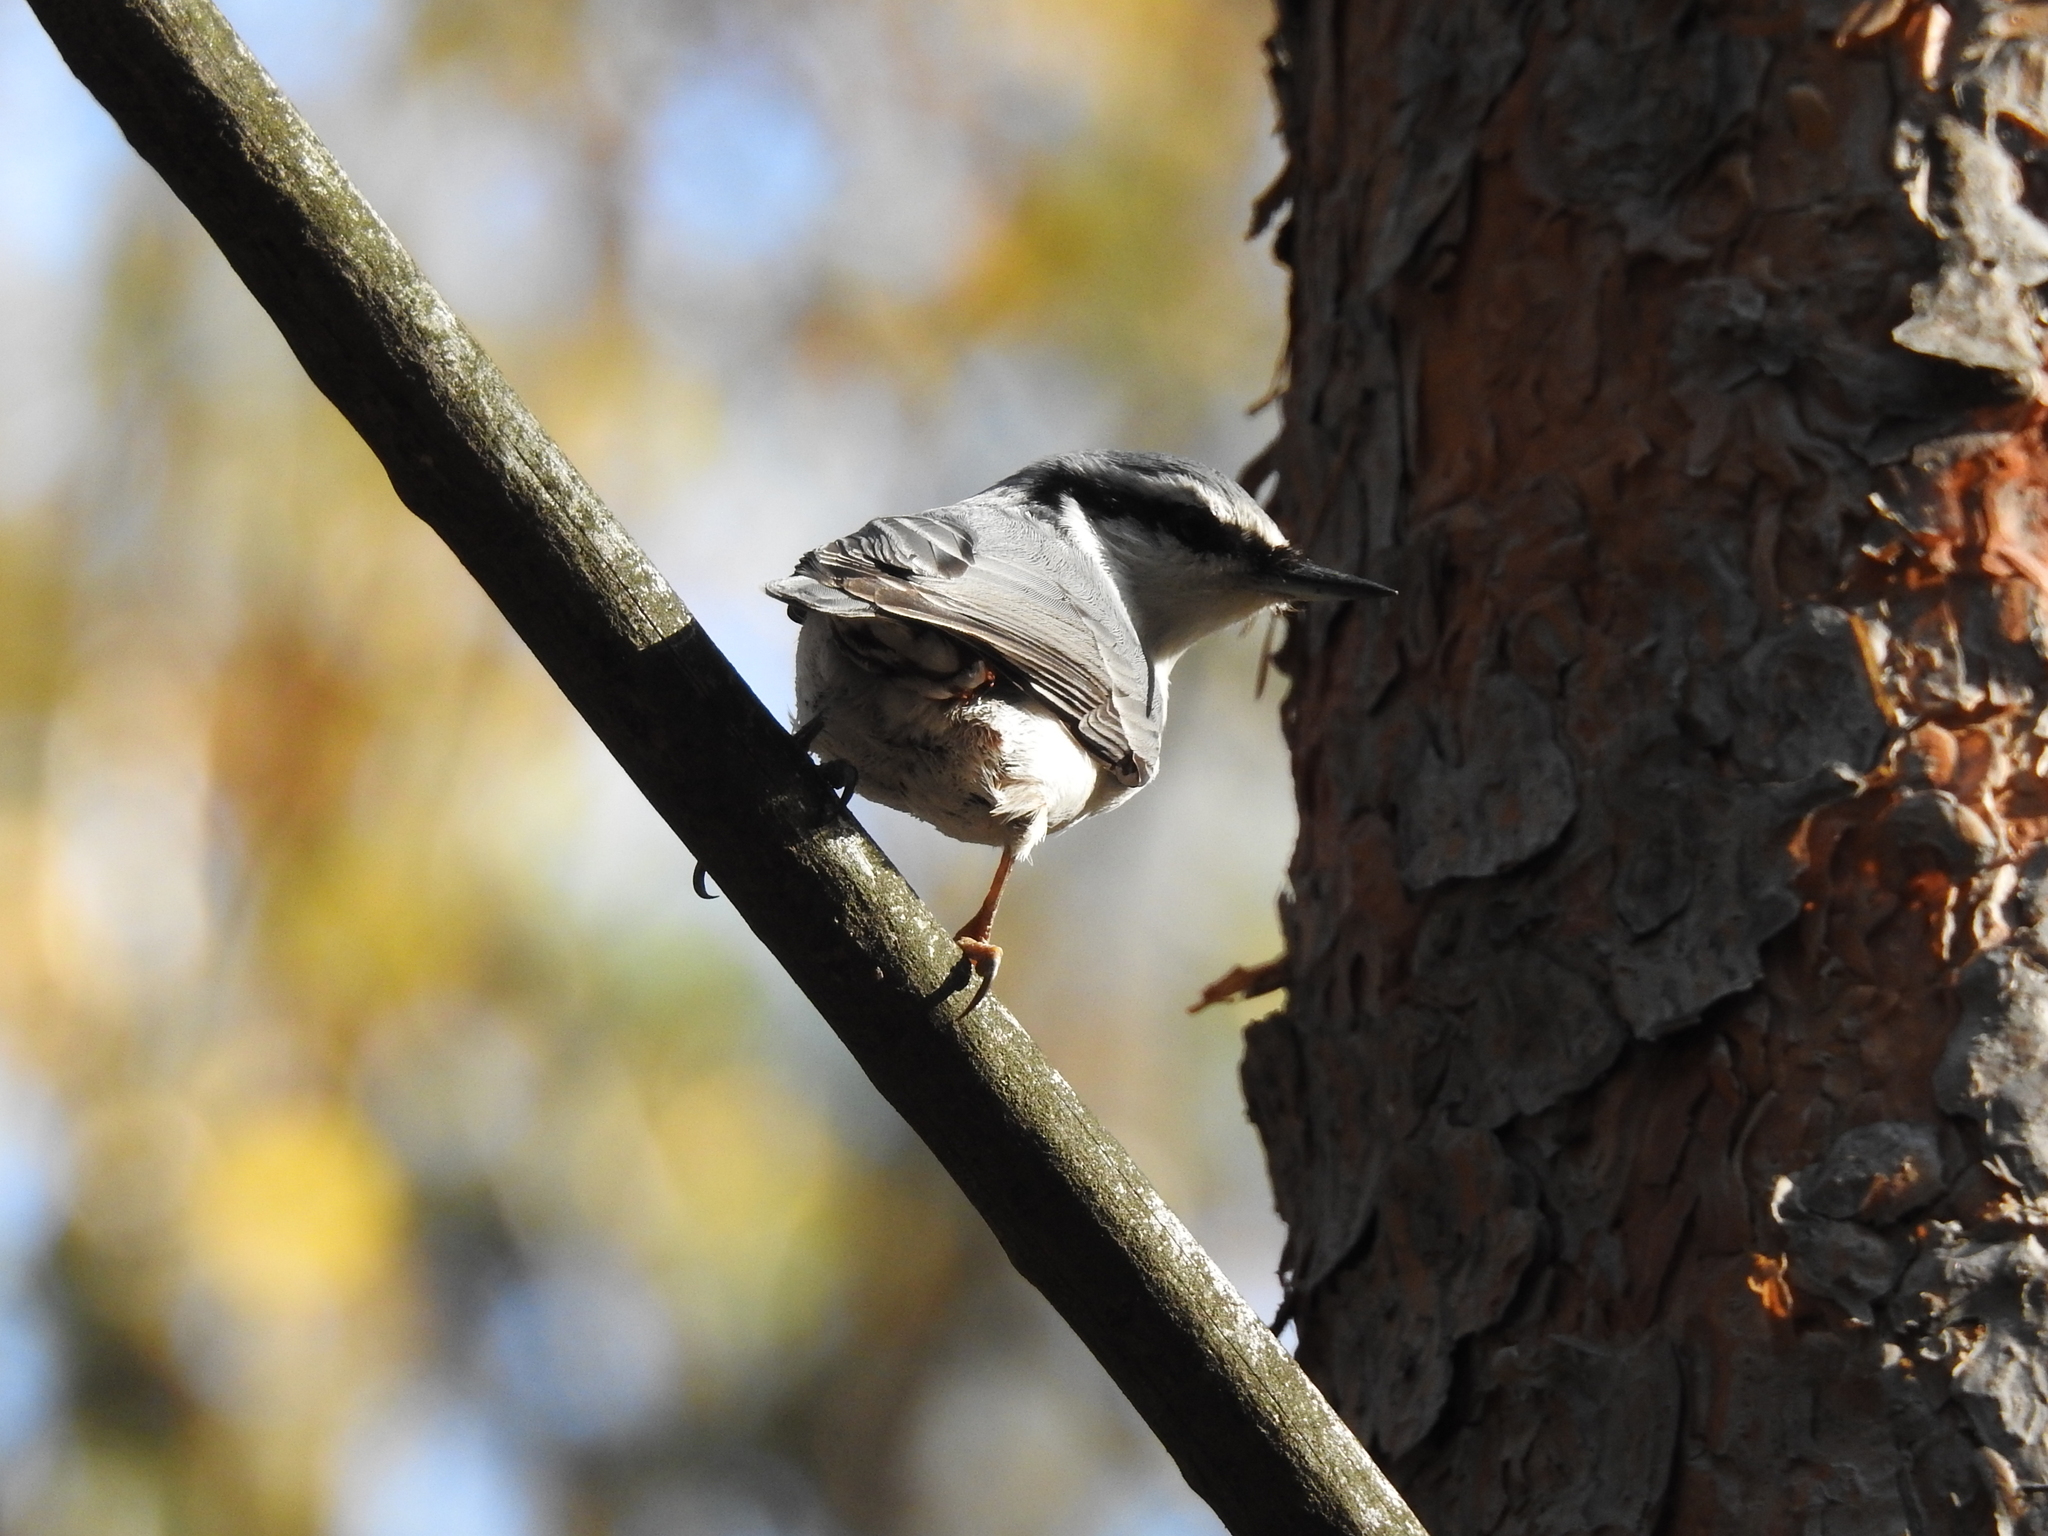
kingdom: Animalia
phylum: Chordata
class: Aves
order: Passeriformes
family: Sittidae
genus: Sitta
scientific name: Sitta europaea
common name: Eurasian nuthatch
